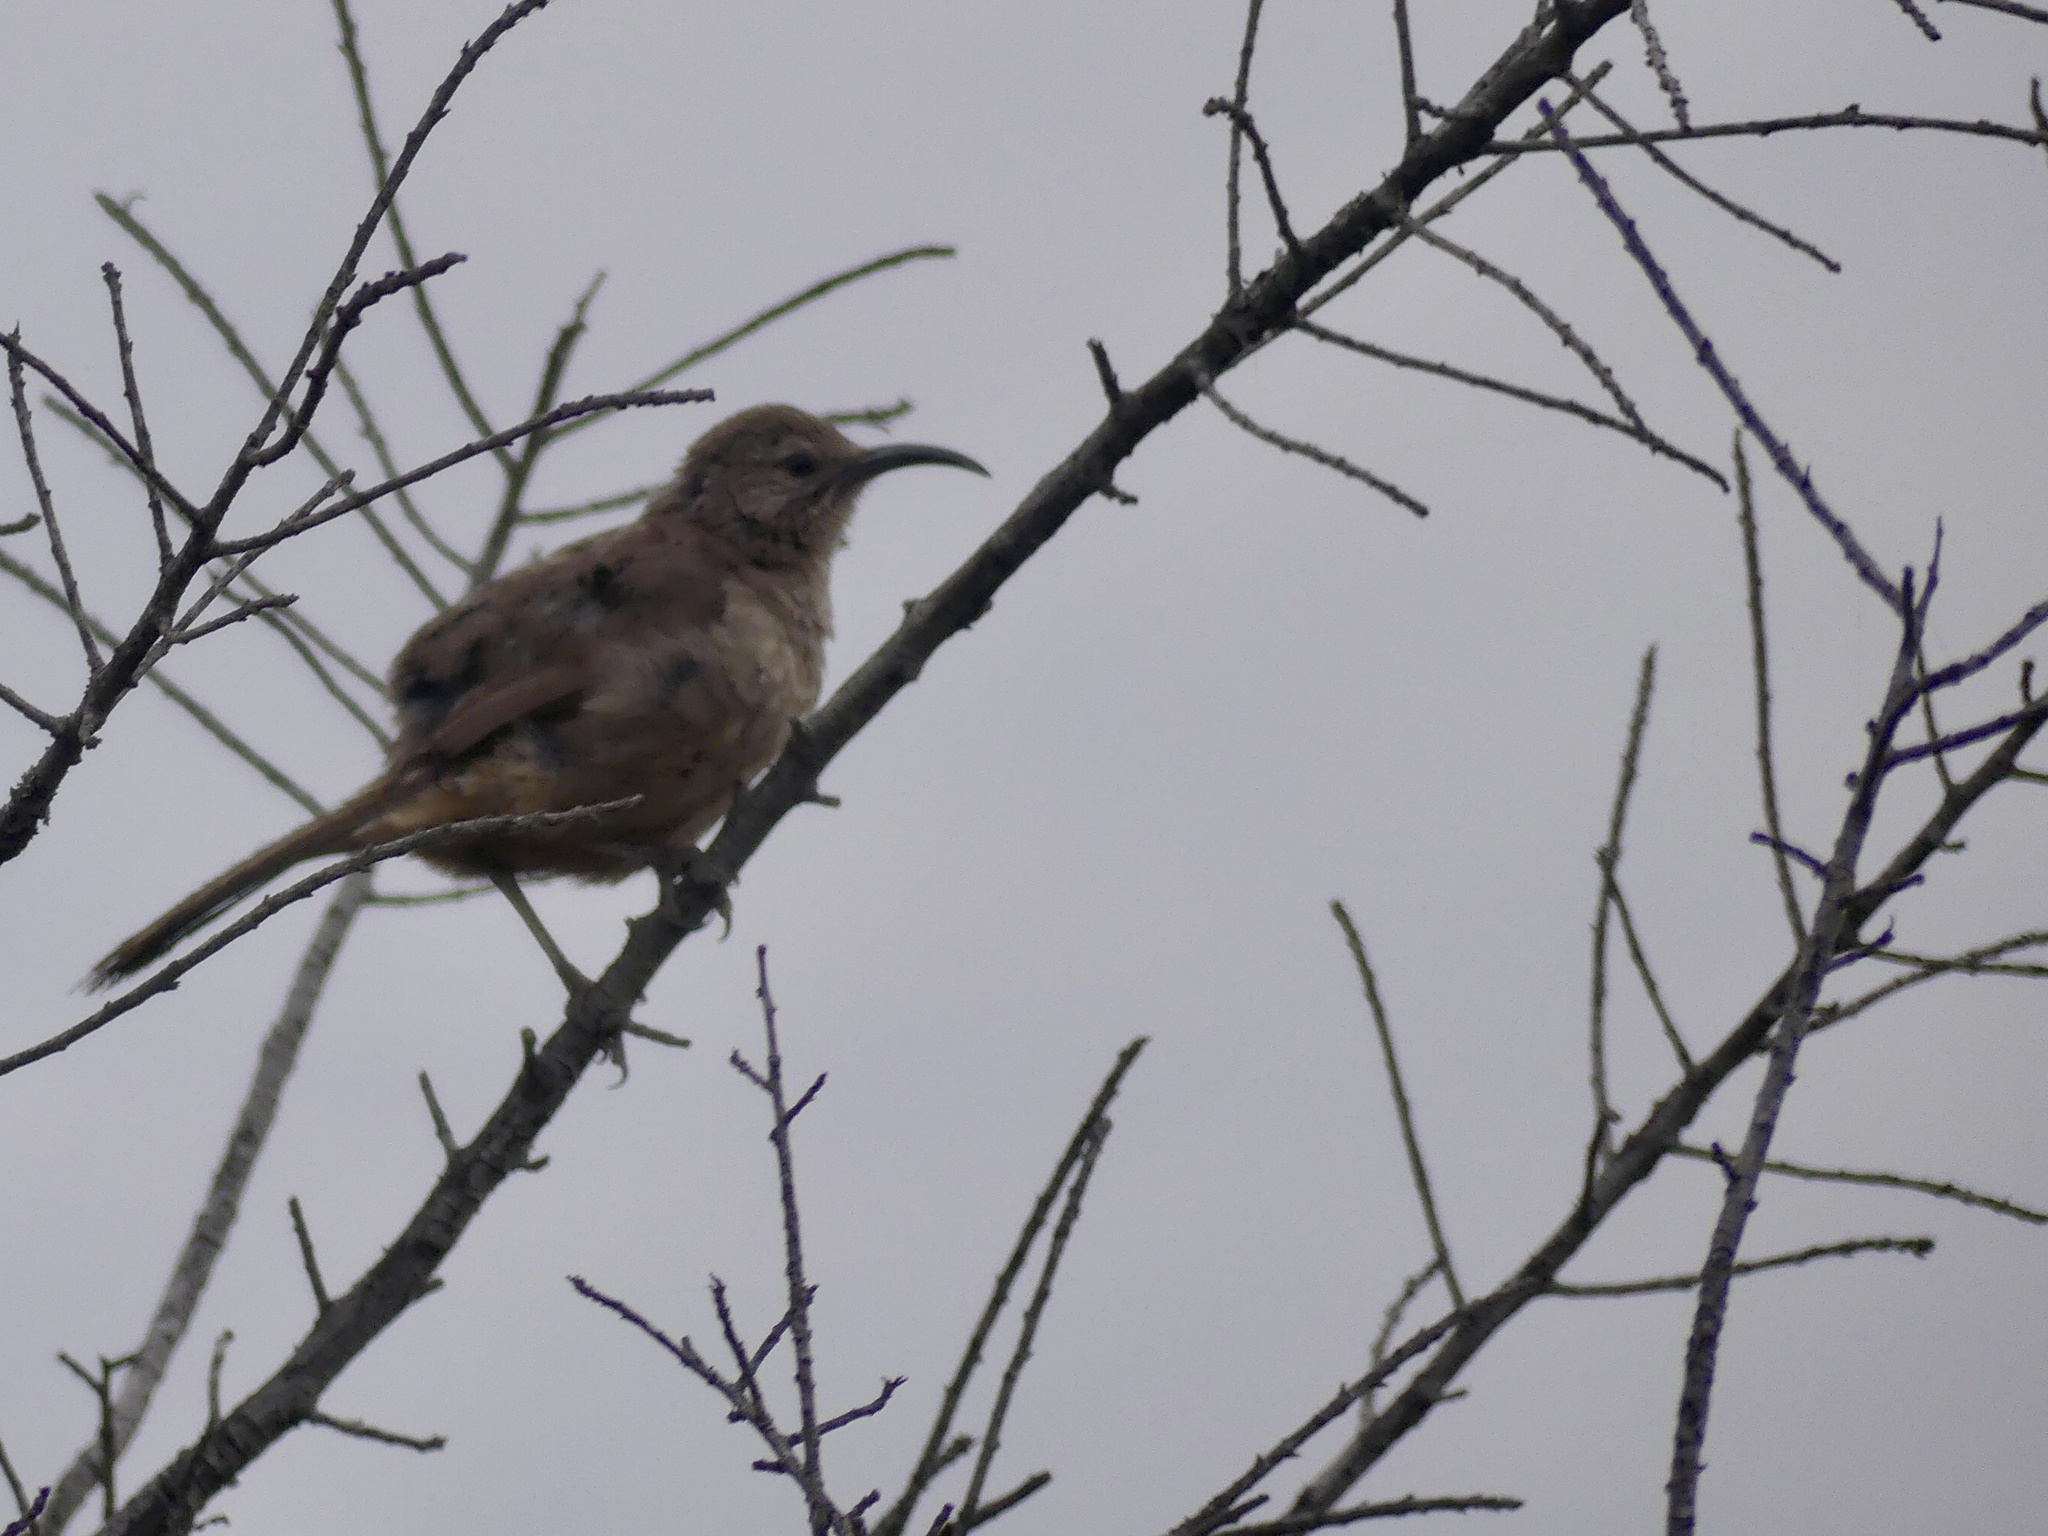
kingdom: Animalia
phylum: Chordata
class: Aves
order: Passeriformes
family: Mimidae
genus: Toxostoma
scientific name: Toxostoma redivivum
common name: California thrasher
